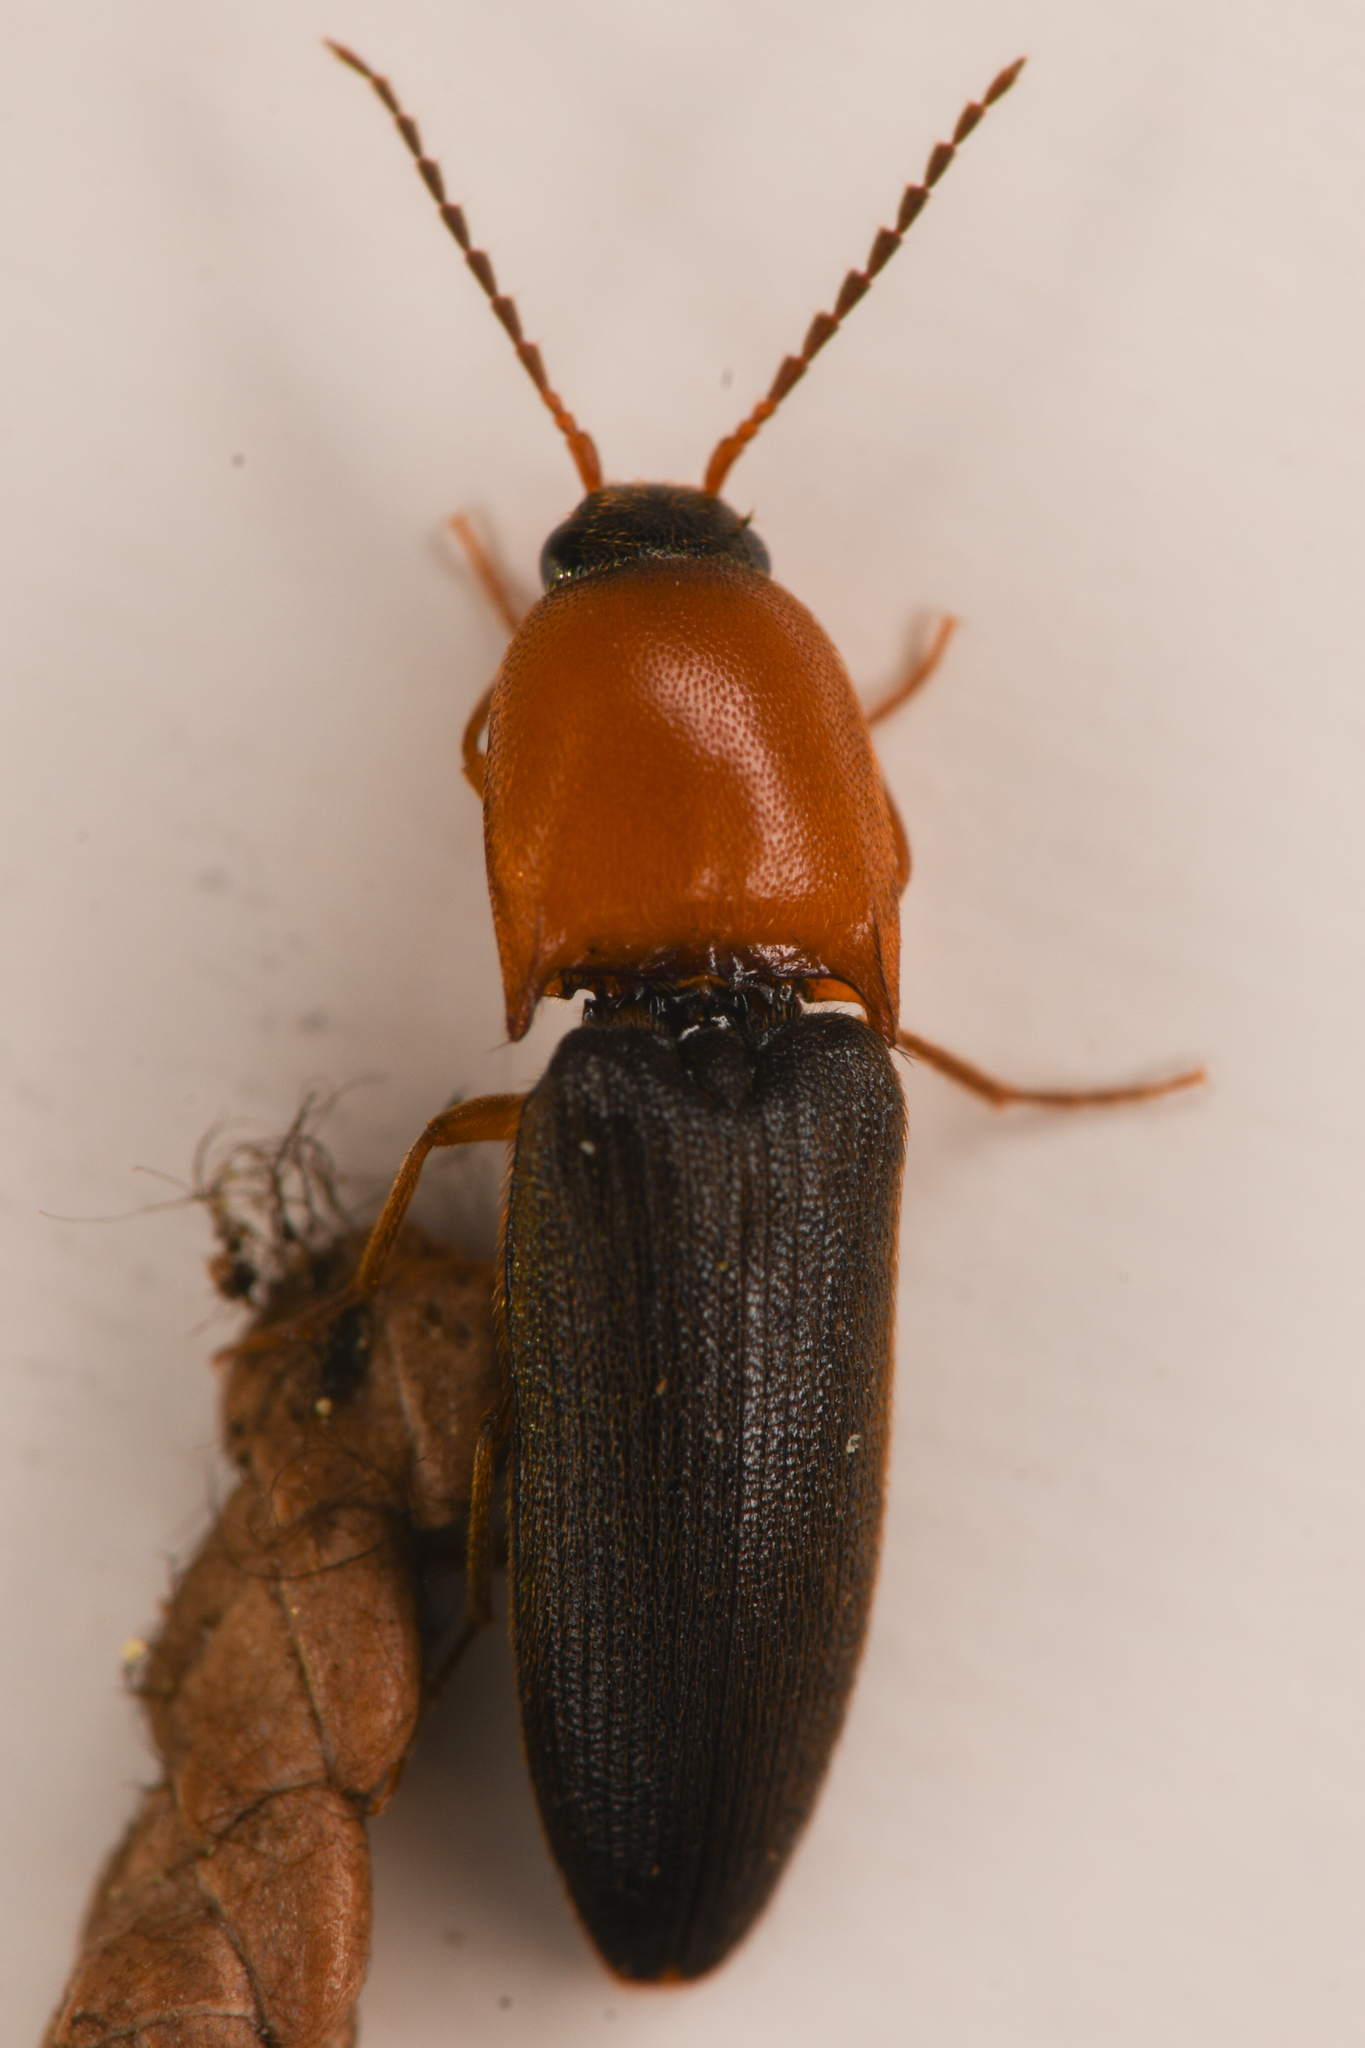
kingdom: Animalia
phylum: Arthropoda
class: Insecta
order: Coleoptera
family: Elateridae
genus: Megapenthes
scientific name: Megapenthes nigriventris
